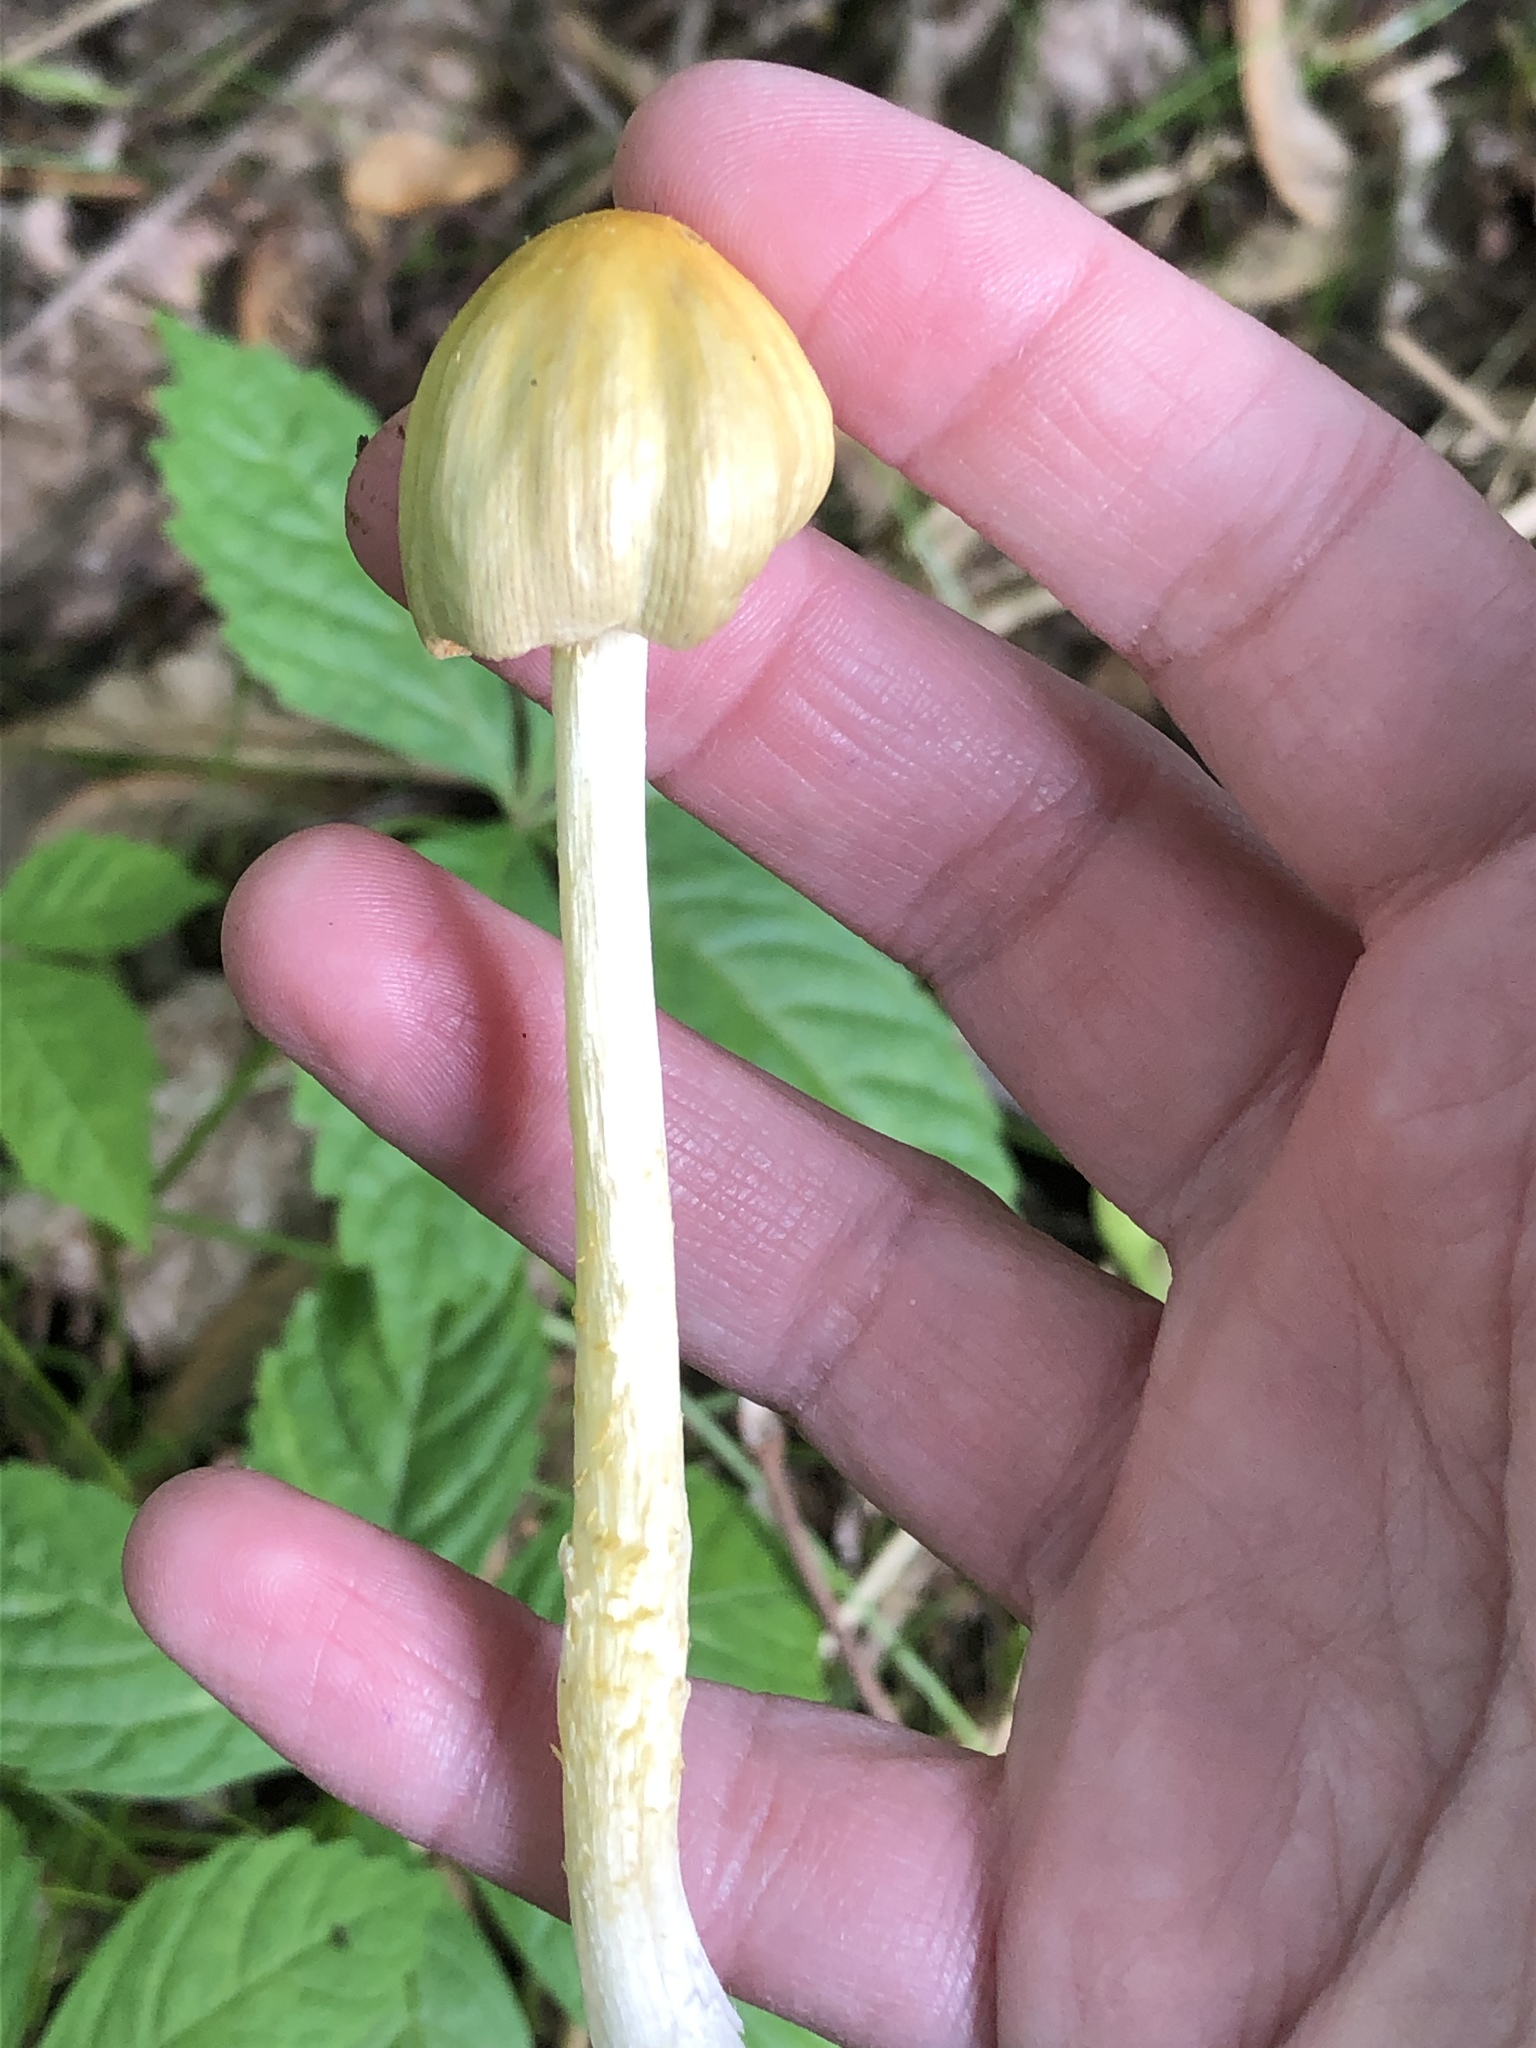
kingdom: Fungi
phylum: Basidiomycota
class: Agaricomycetes
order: Agaricales
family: Bolbitiaceae
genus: Bolbitius
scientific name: Bolbitius titubans
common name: Yellow fieldcap
